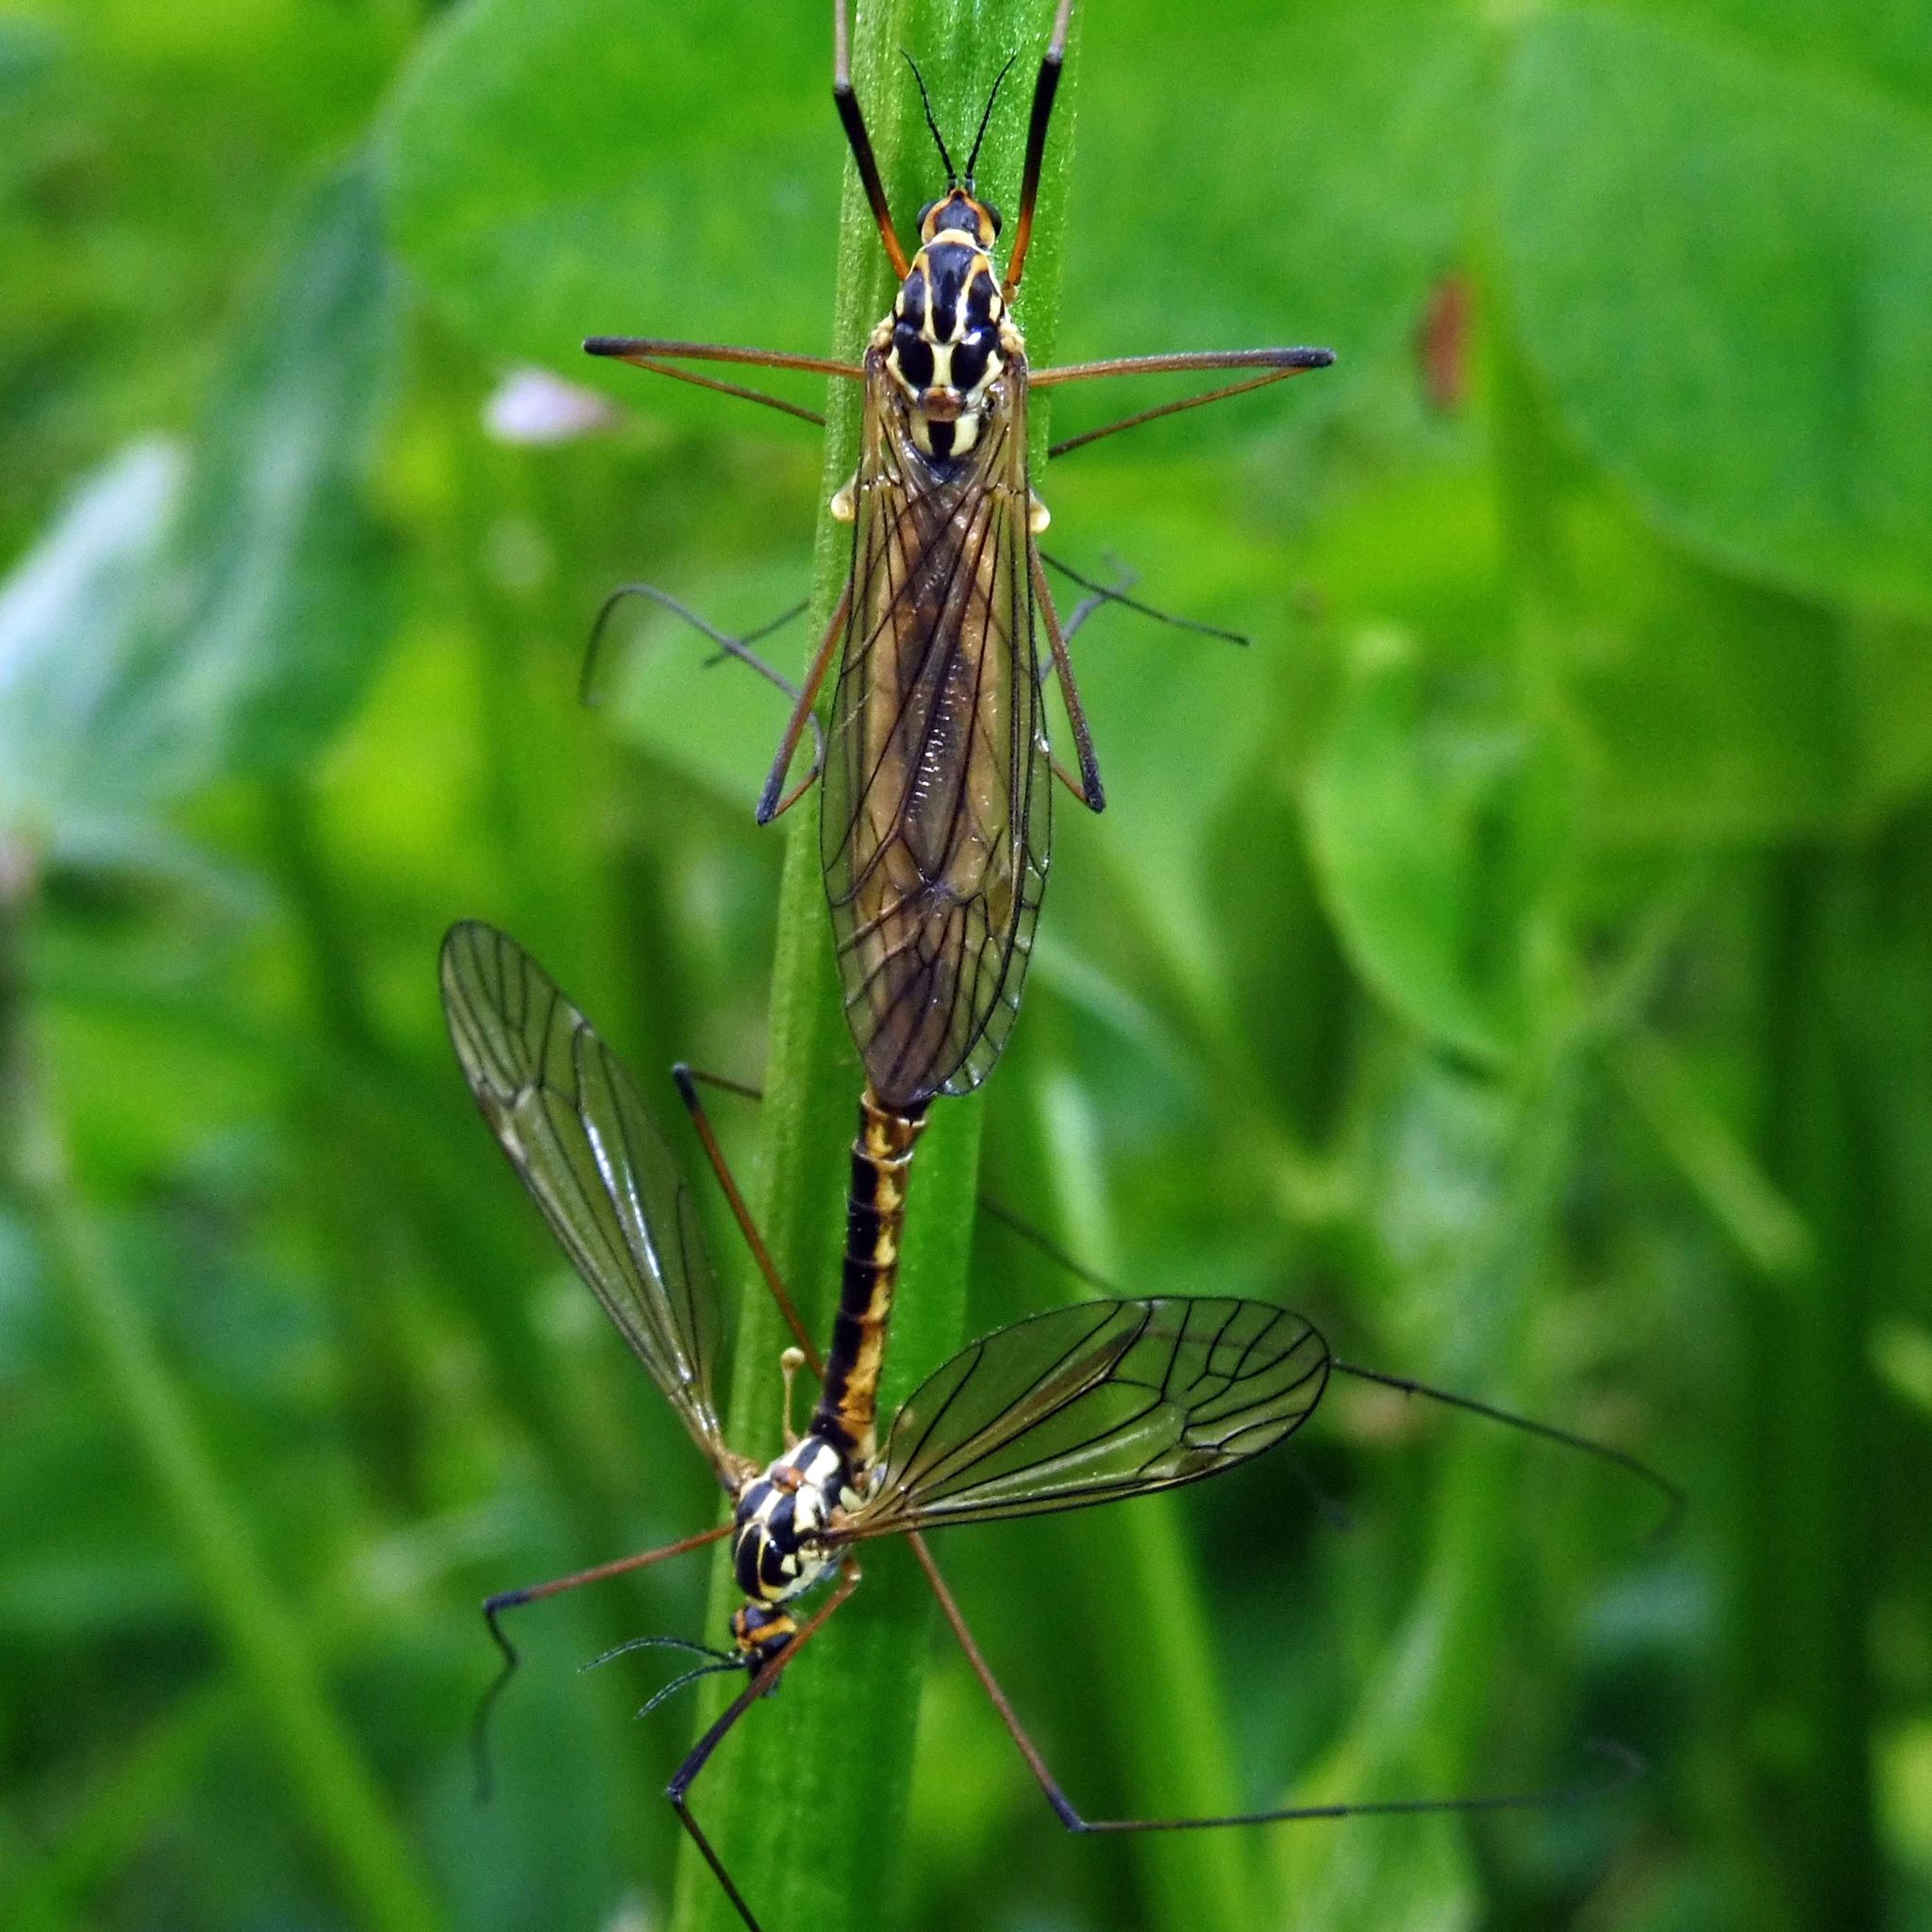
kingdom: Animalia
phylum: Arthropoda
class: Insecta
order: Diptera
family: Tipulidae
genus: Nephrotoma
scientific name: Nephrotoma appendiculata
